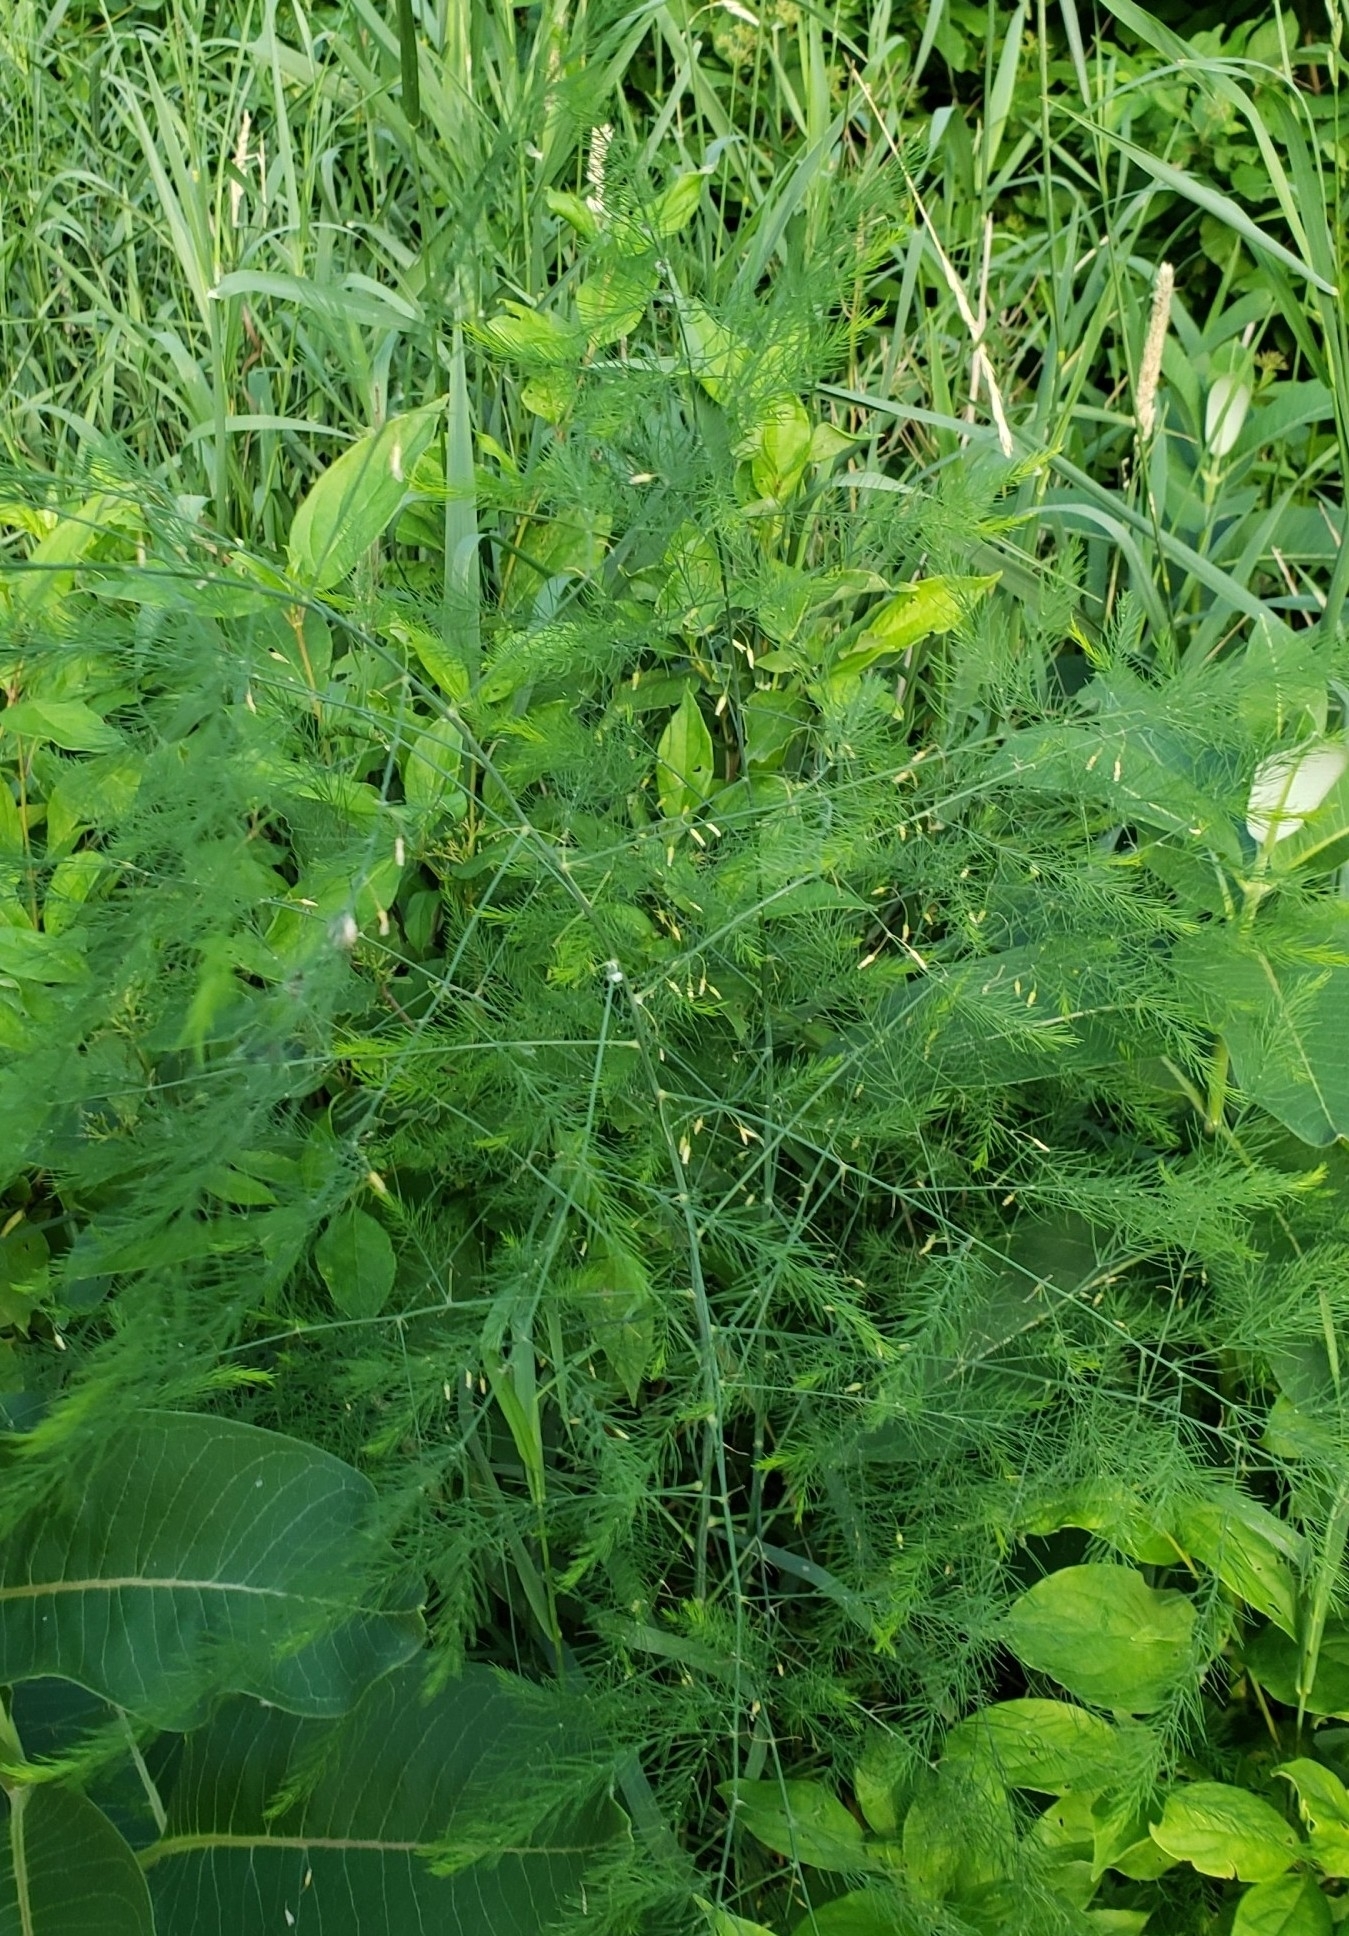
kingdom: Plantae
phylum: Tracheophyta
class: Liliopsida
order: Asparagales
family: Asparagaceae
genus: Asparagus
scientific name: Asparagus officinalis
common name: Garden asparagus
